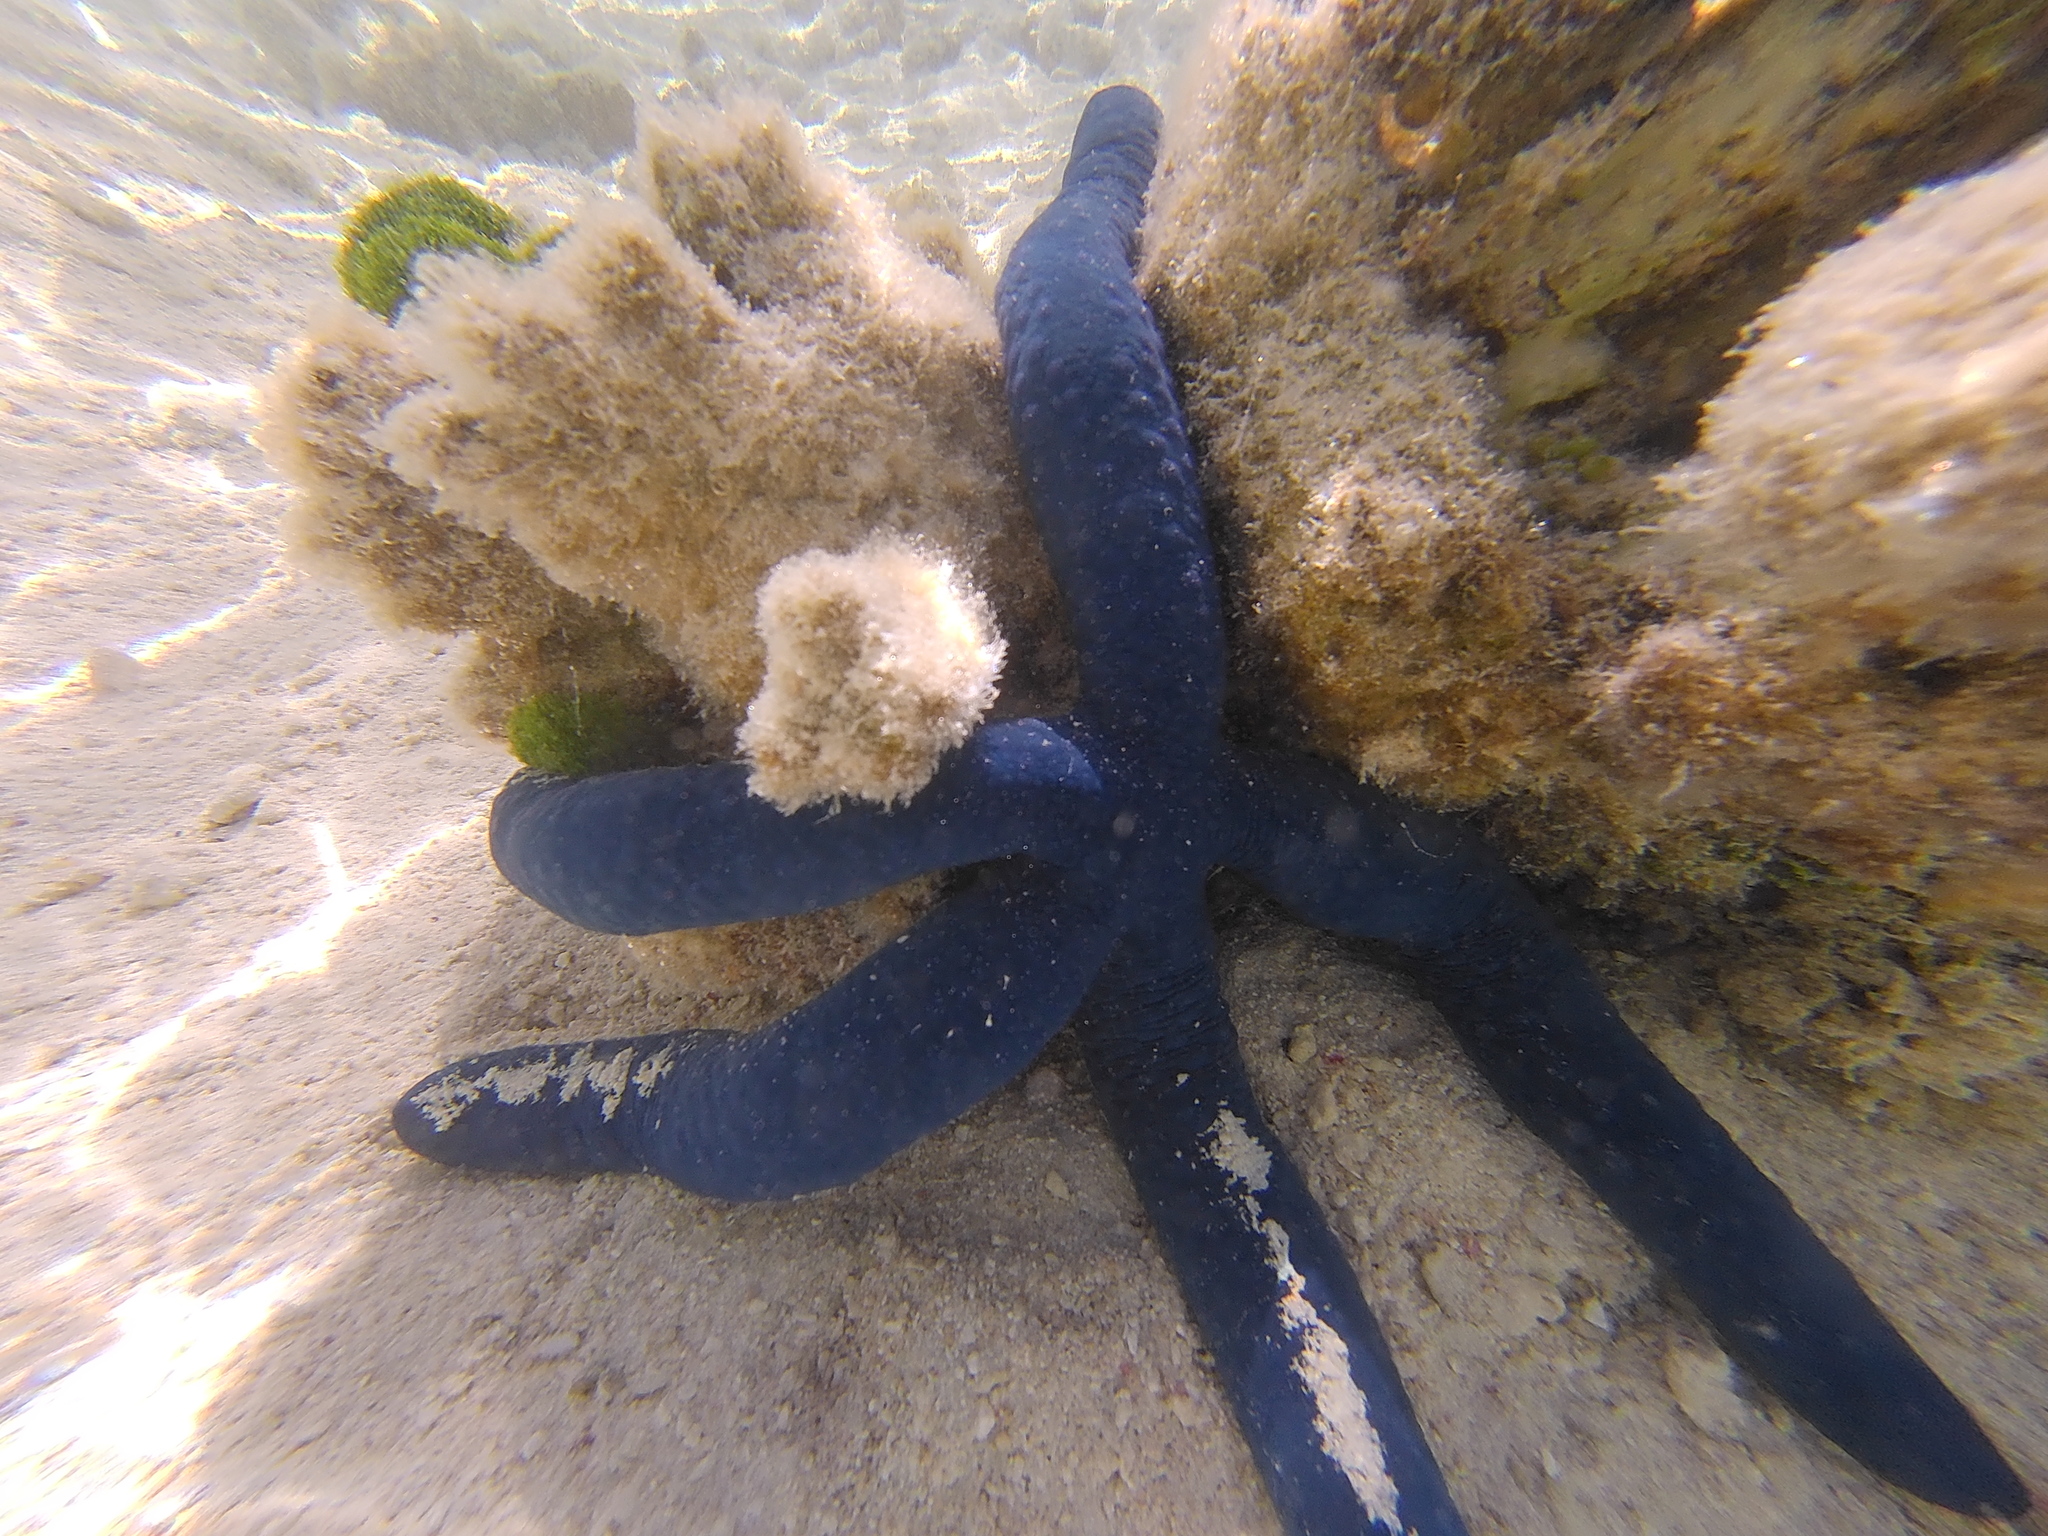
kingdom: Animalia
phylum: Echinodermata
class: Asteroidea
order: Valvatida
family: Ophidiasteridae
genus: Linckia
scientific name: Linckia laevigata
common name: Azure sea star
